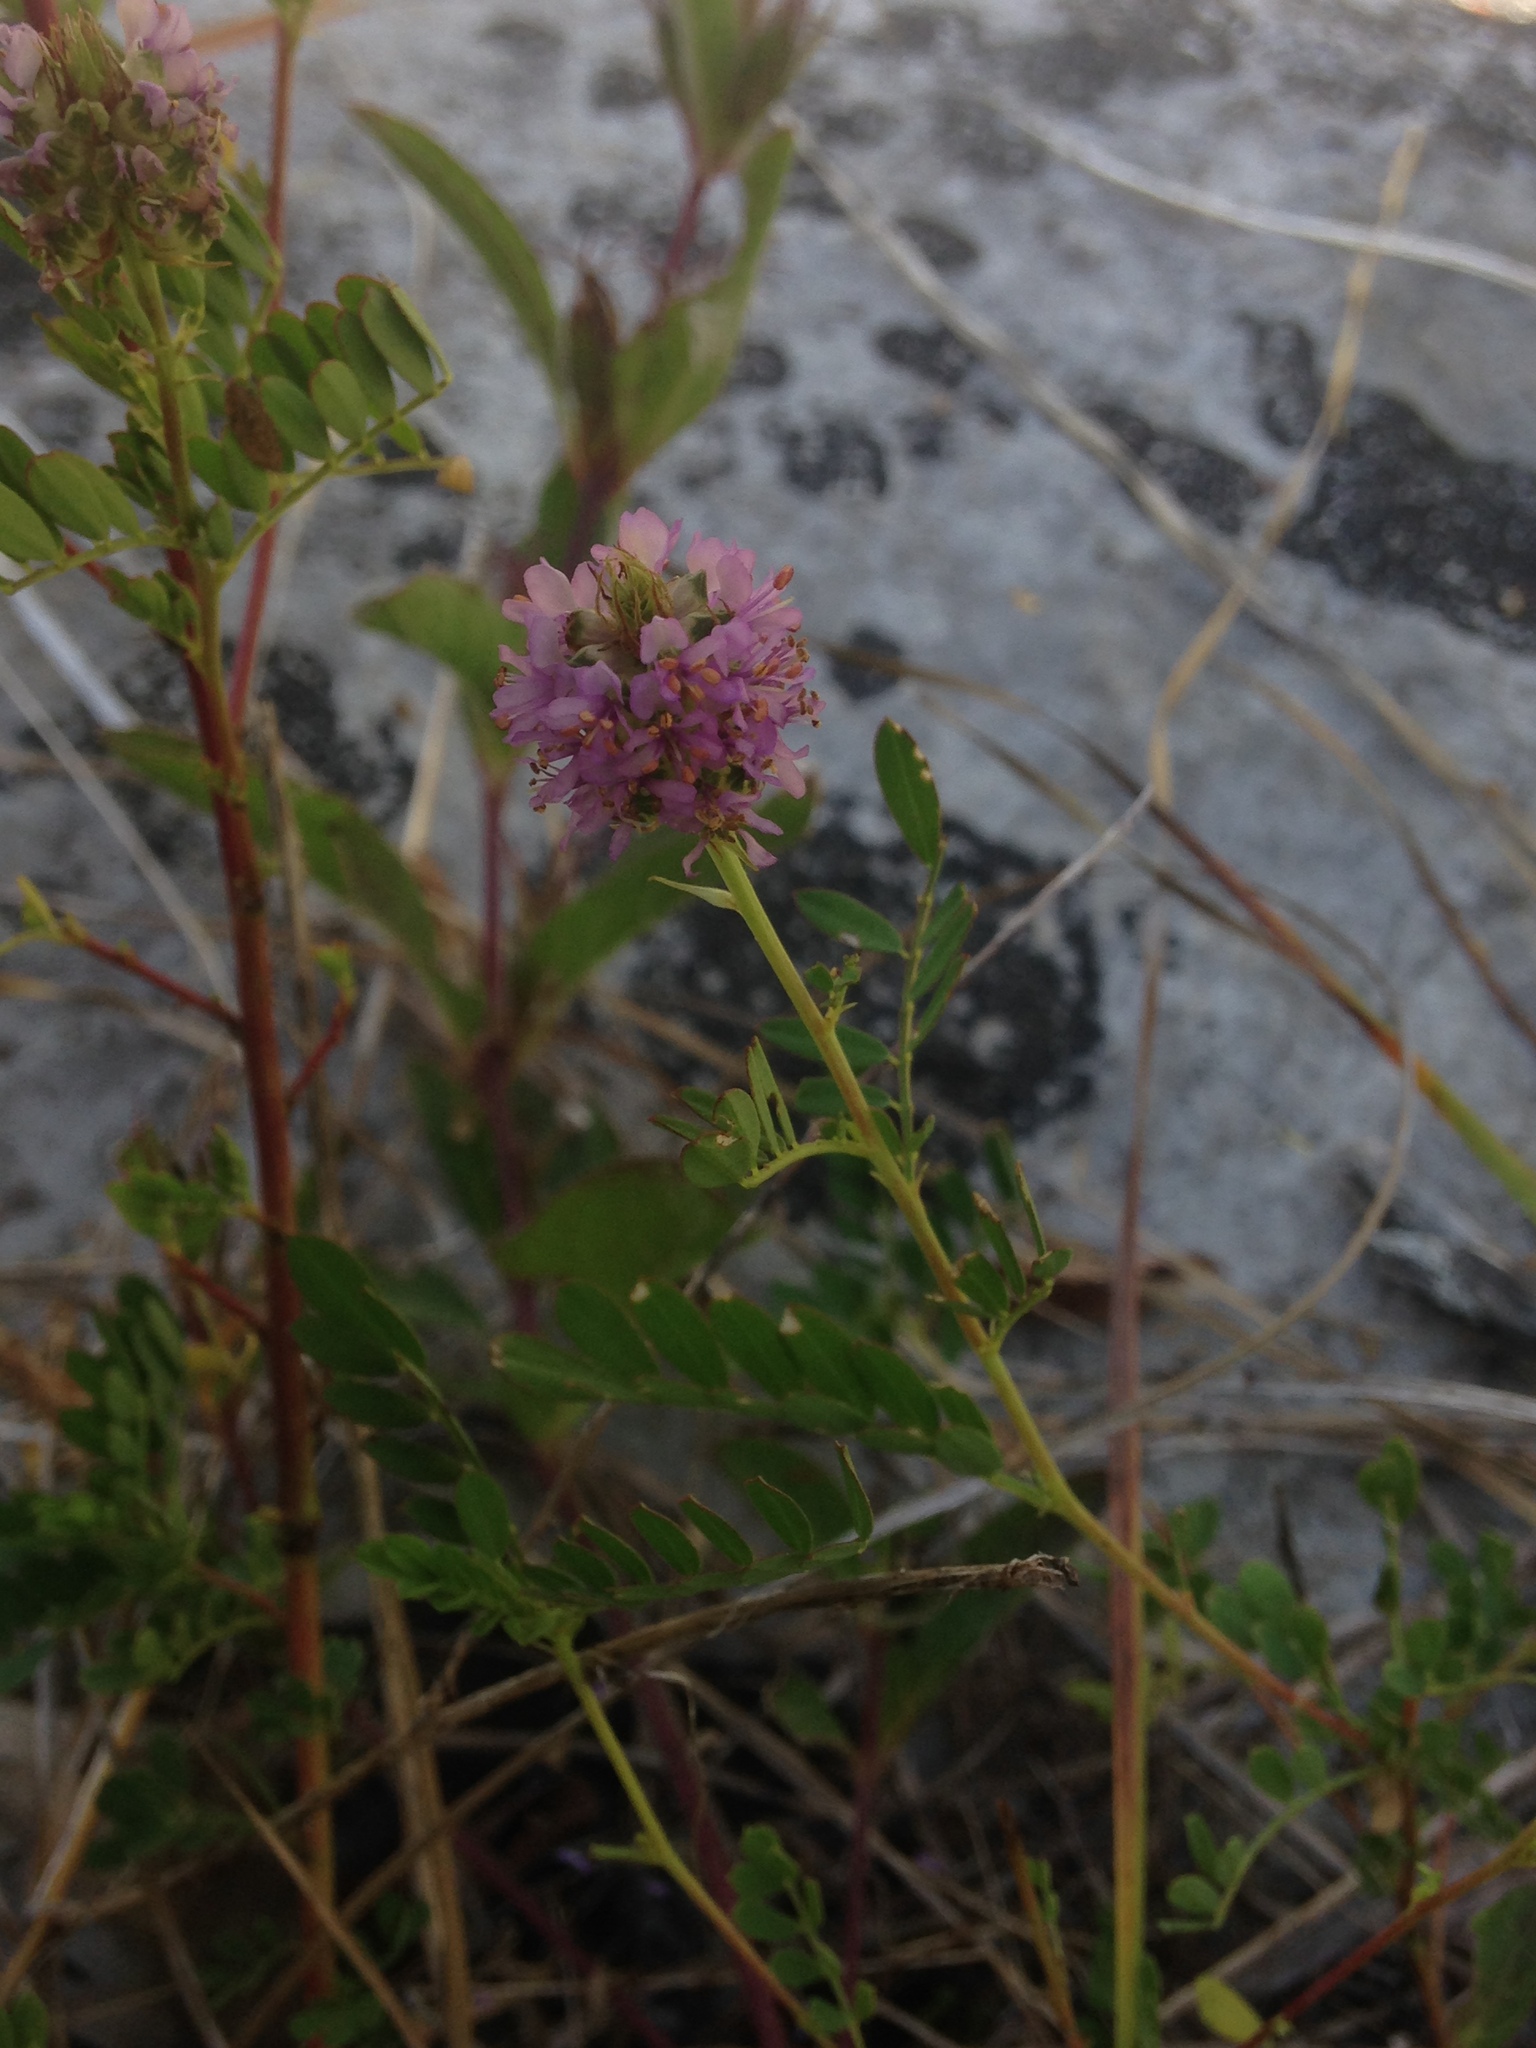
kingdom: Plantae
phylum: Tracheophyta
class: Magnoliopsida
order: Fabales
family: Fabaceae
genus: Dalea
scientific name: Dalea foliosa
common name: Leafy prairie-clover
